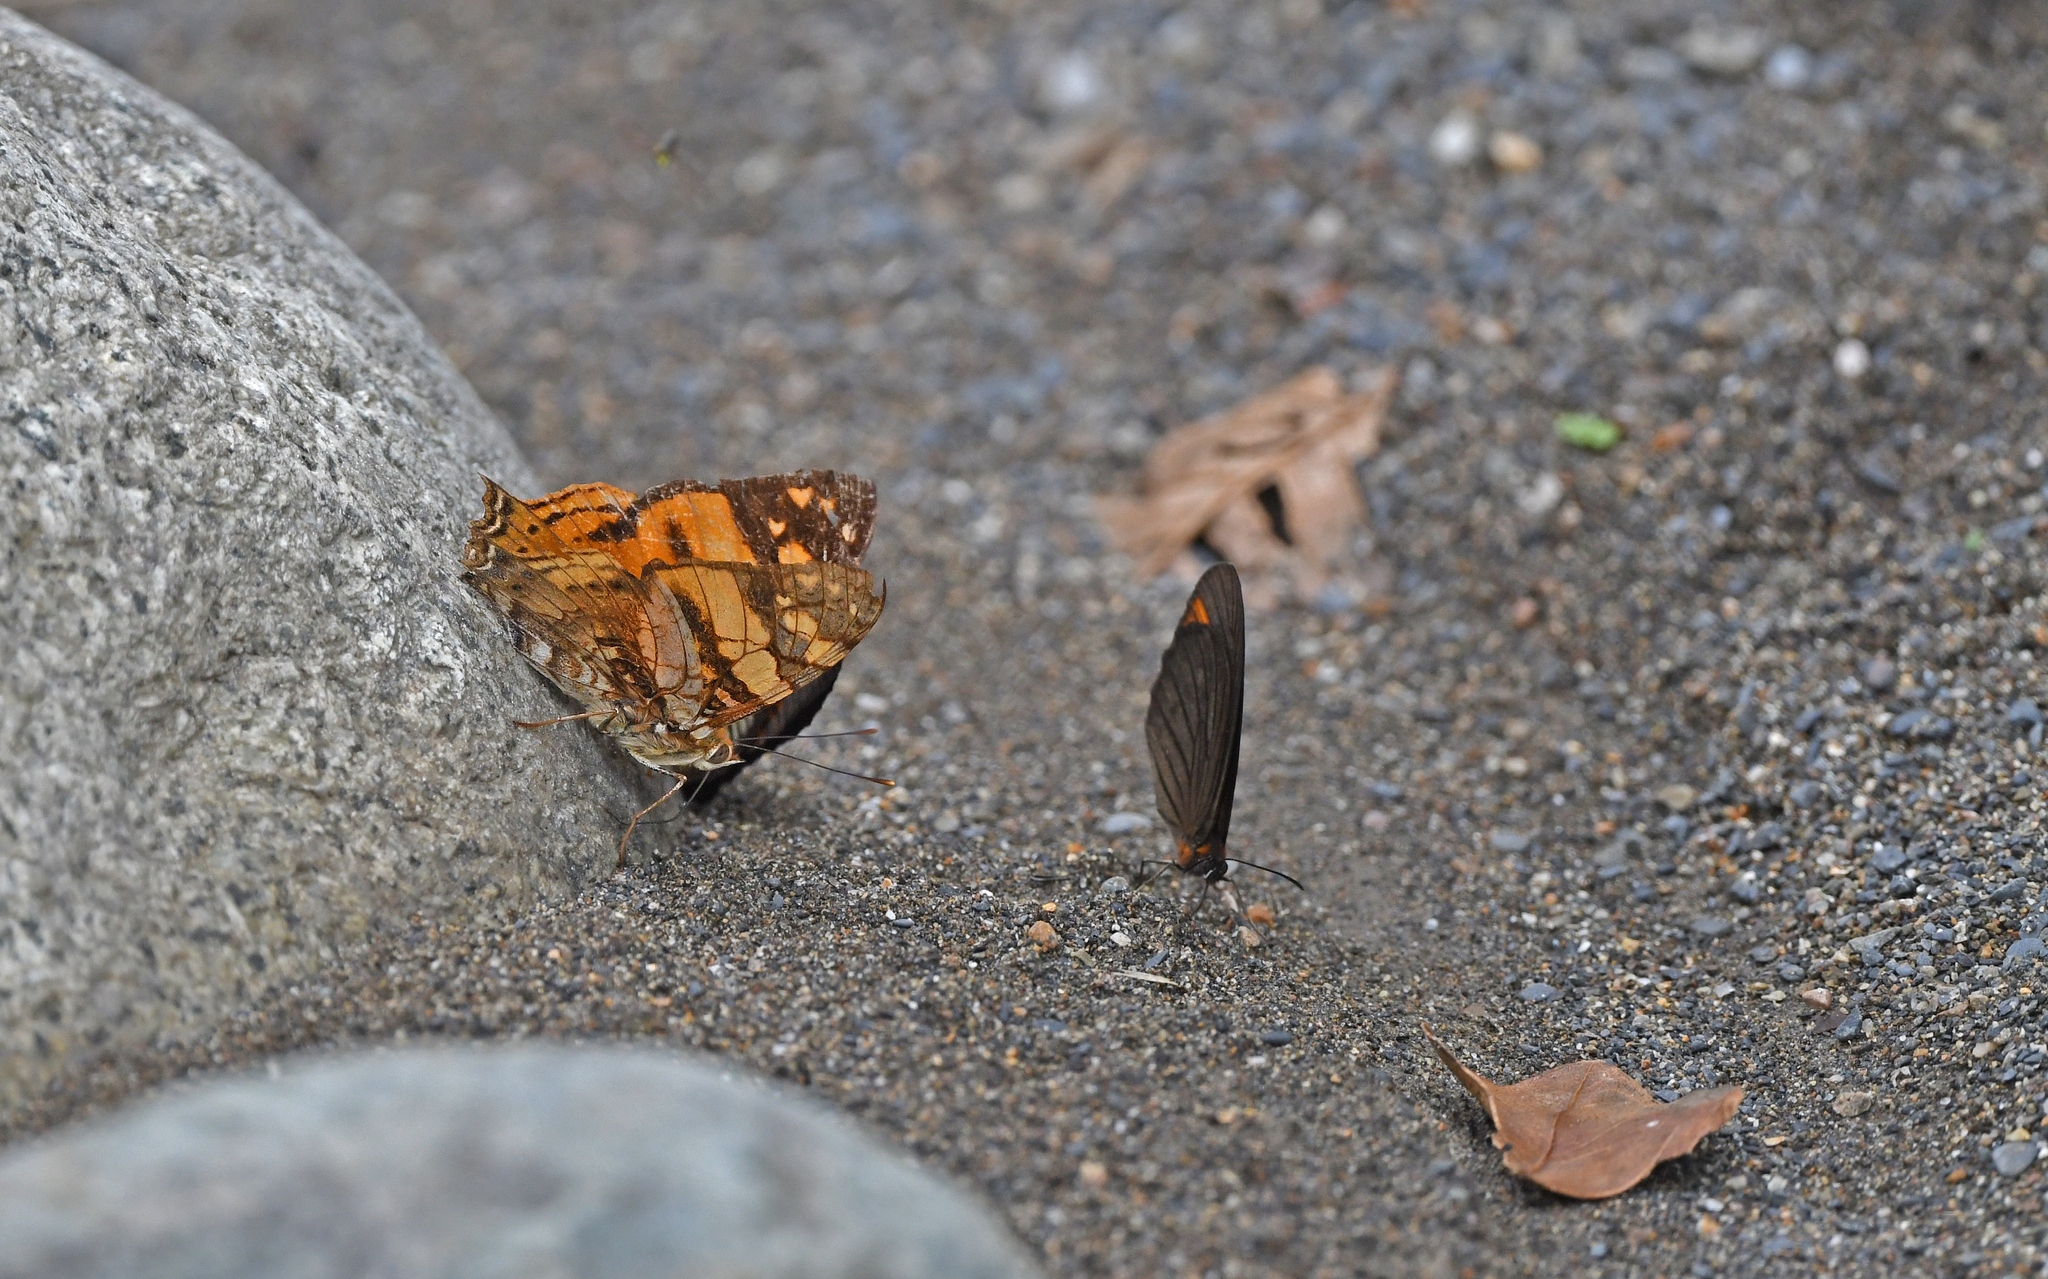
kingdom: Animalia
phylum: Arthropoda
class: Insecta
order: Lepidoptera
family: Nymphalidae
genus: Hypanartia
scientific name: Hypanartia lethe
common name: Orange mapwing
